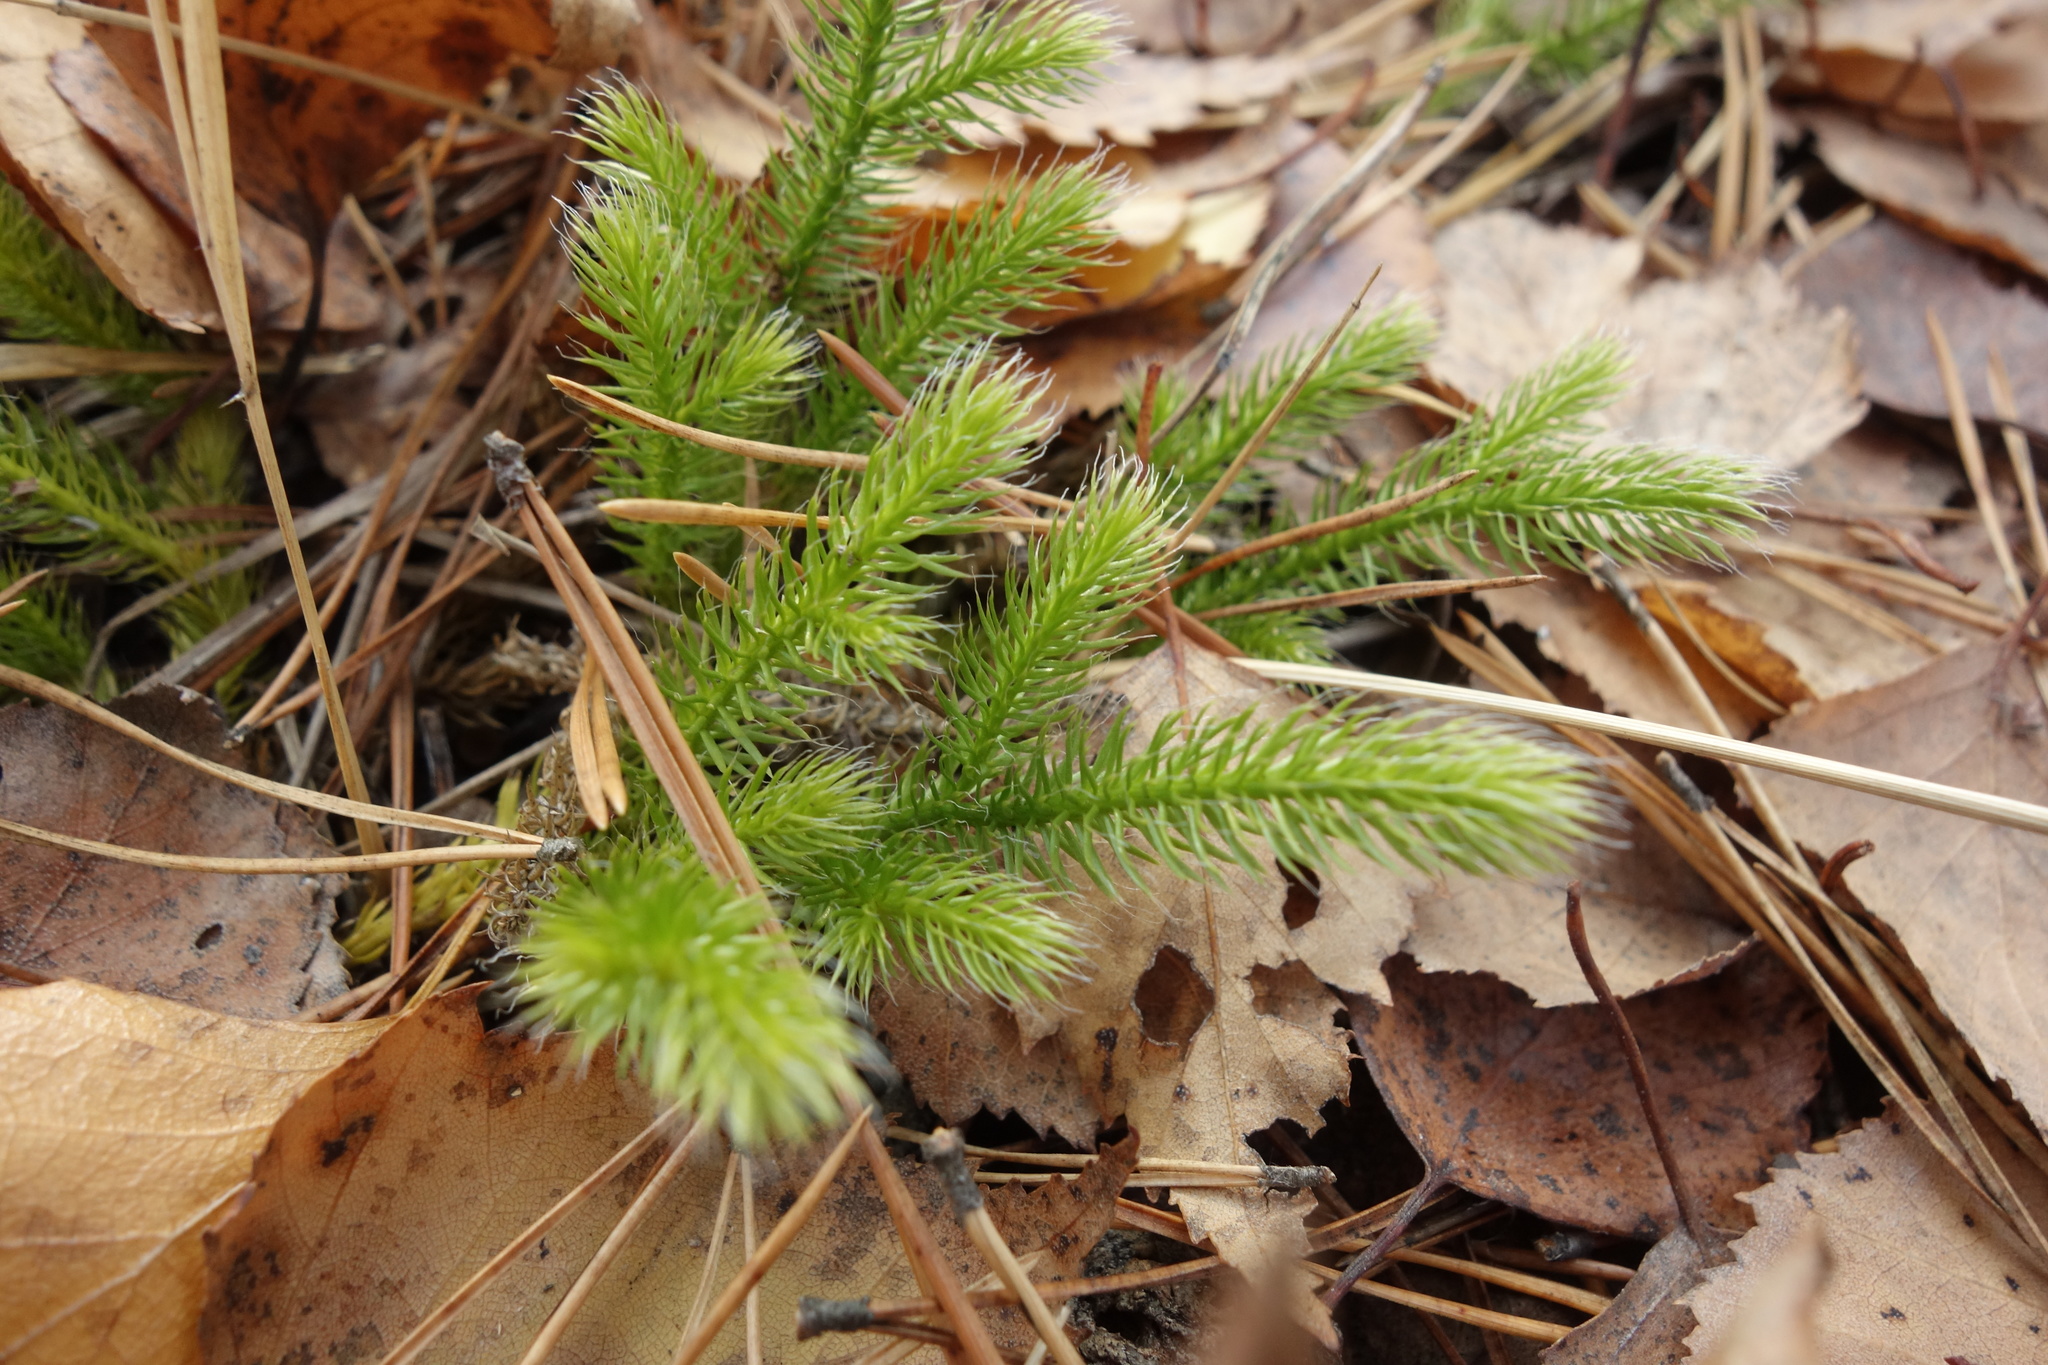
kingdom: Plantae
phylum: Tracheophyta
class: Lycopodiopsida
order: Lycopodiales
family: Lycopodiaceae
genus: Lycopodium
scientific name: Lycopodium clavatum
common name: Stag's-horn clubmoss
